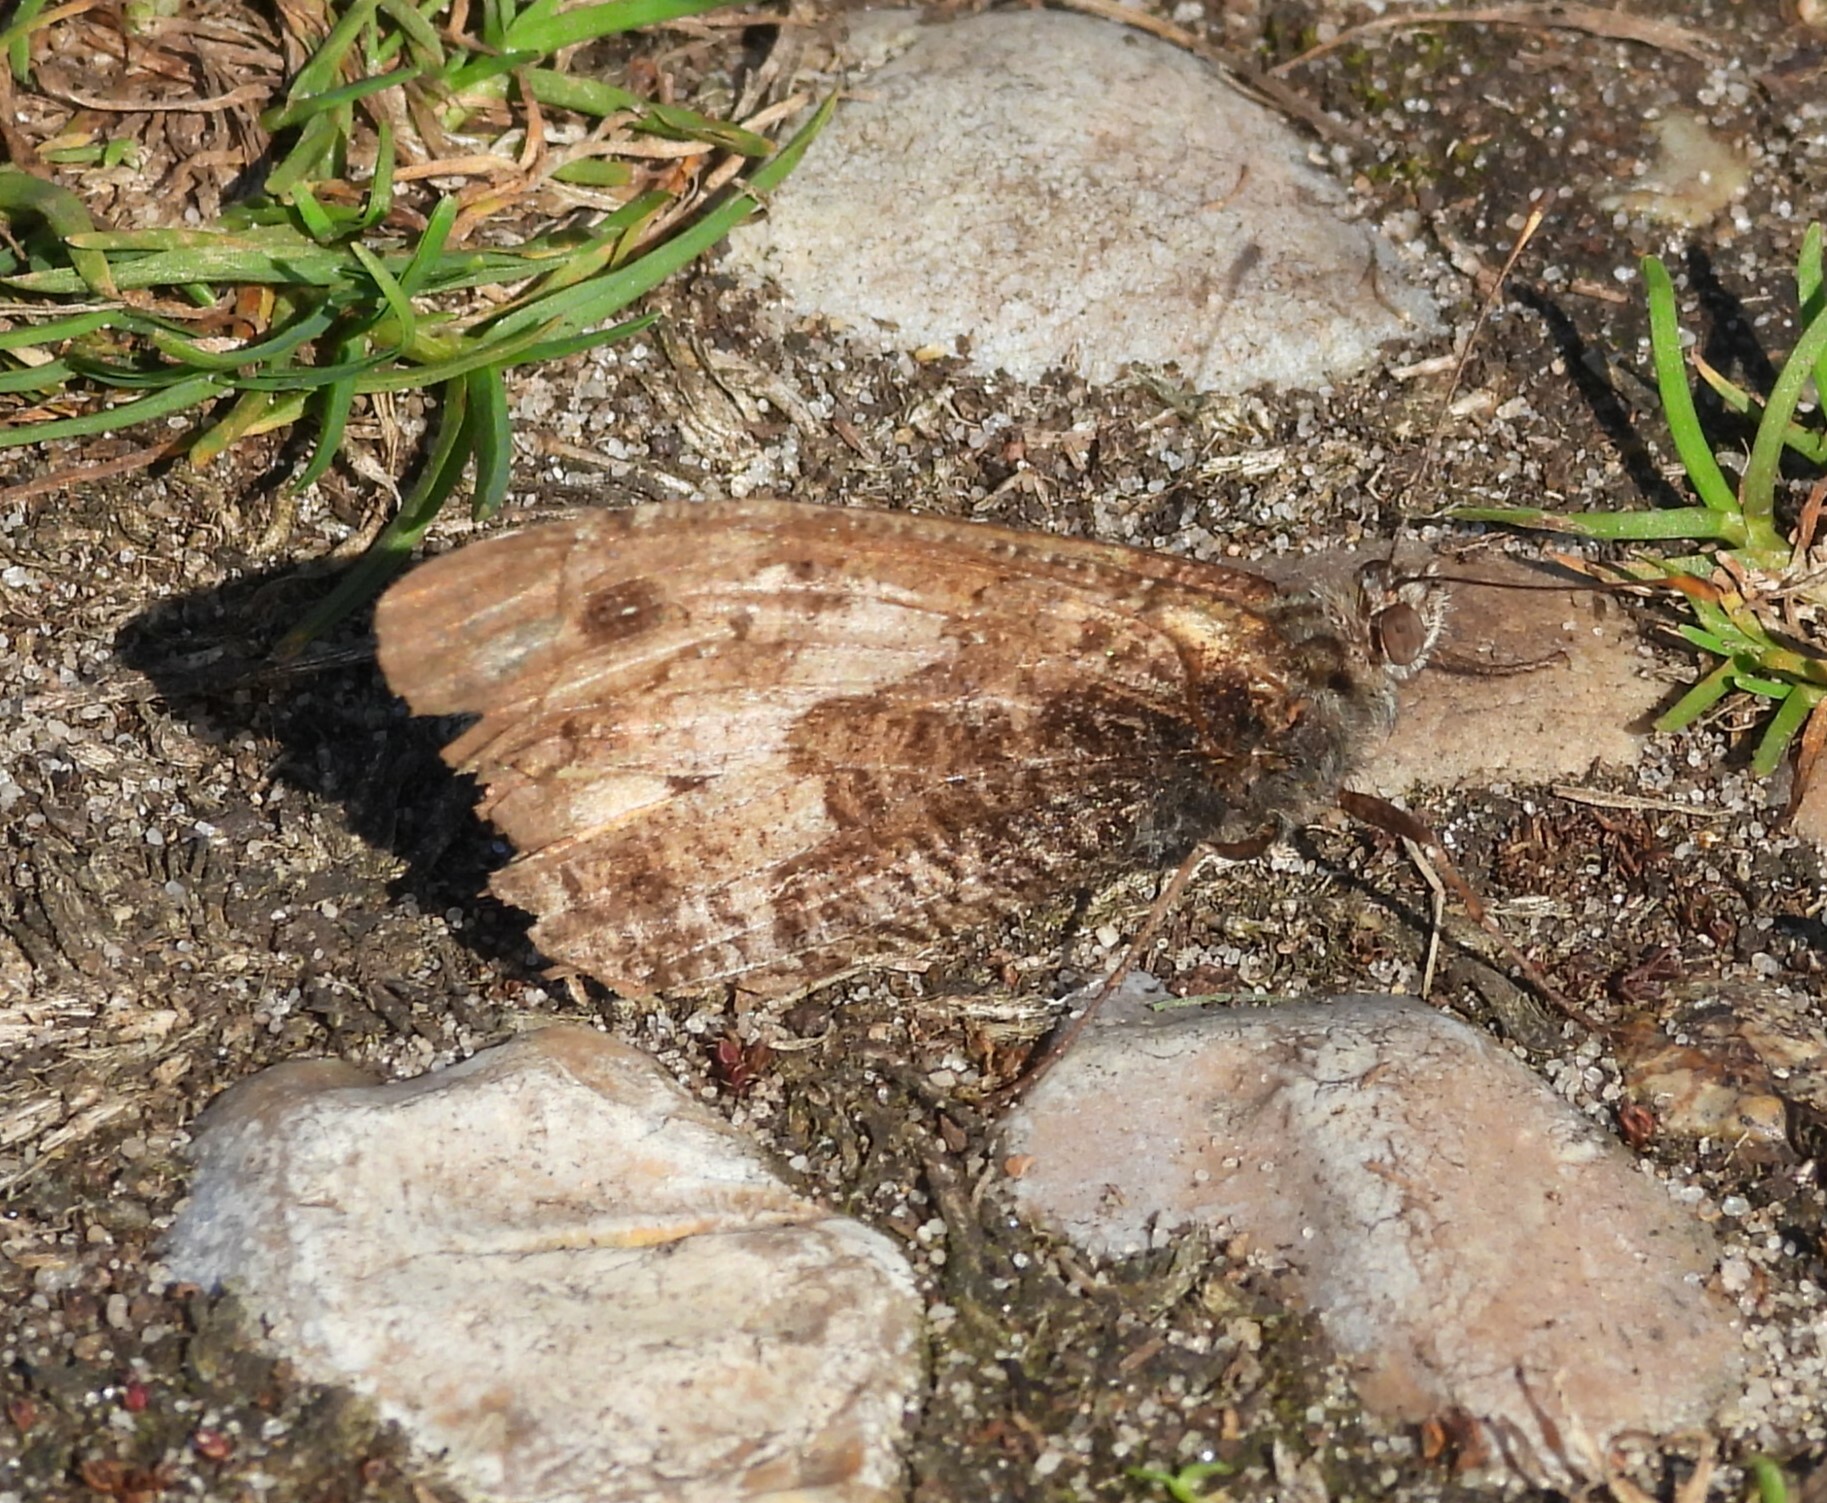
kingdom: Animalia
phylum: Arthropoda
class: Insecta
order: Lepidoptera
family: Nymphalidae
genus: Hipparchia
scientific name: Hipparchia semele
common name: Grayling
